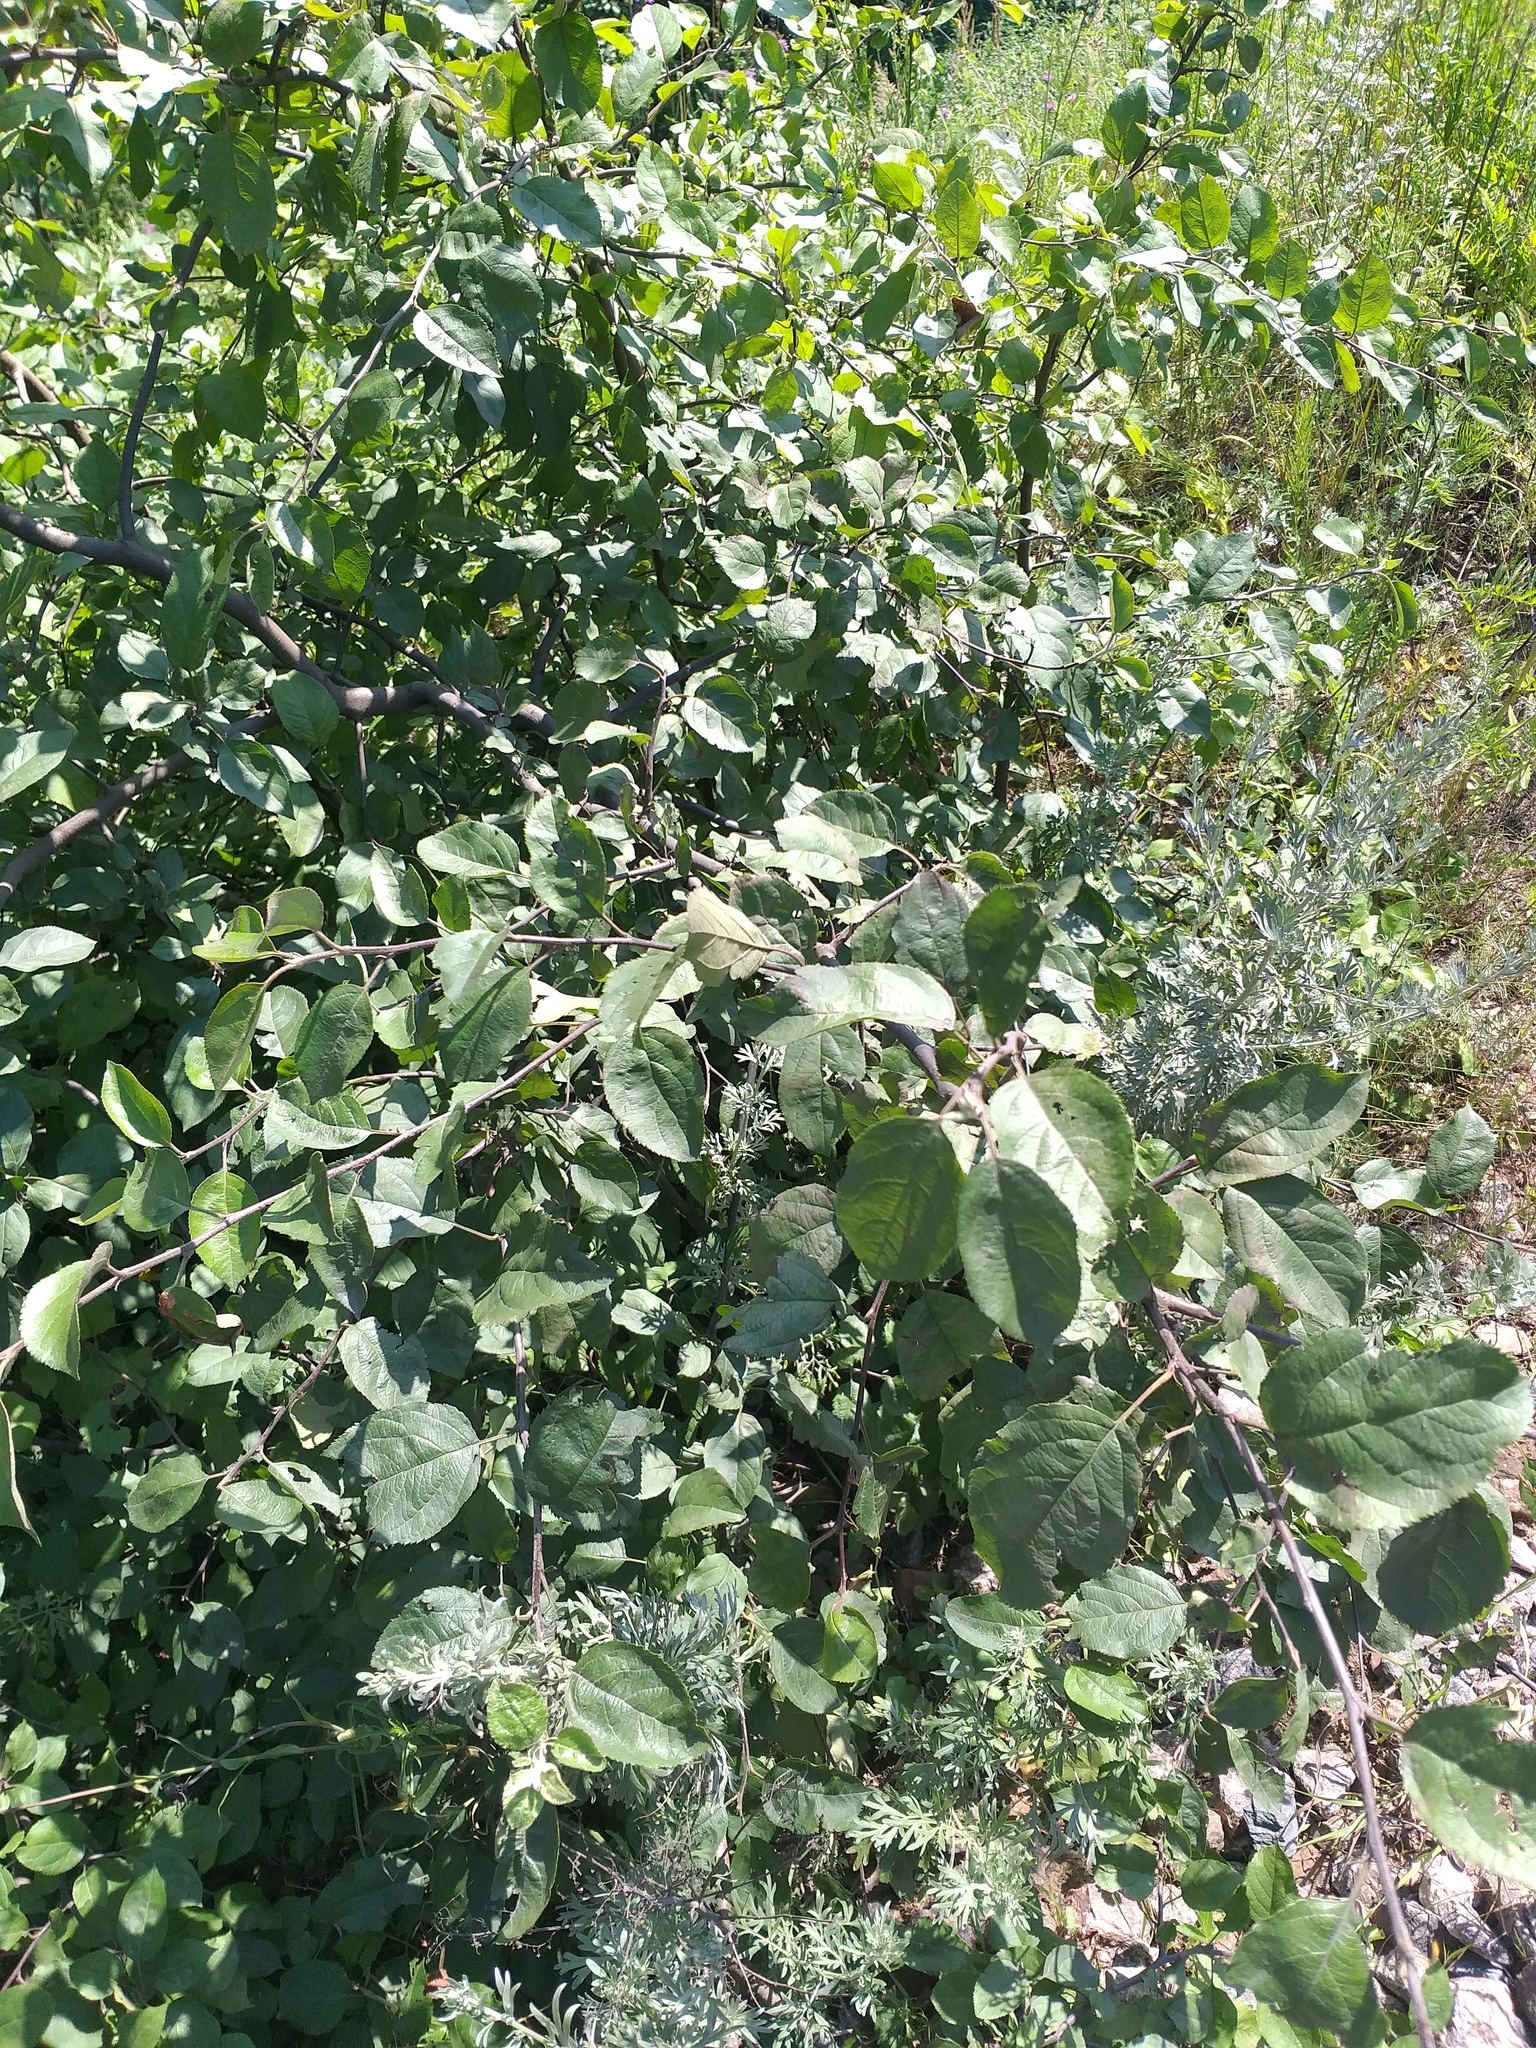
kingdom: Plantae
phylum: Tracheophyta
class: Magnoliopsida
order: Rosales
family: Rosaceae
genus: Malus
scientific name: Malus domestica
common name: Apple
